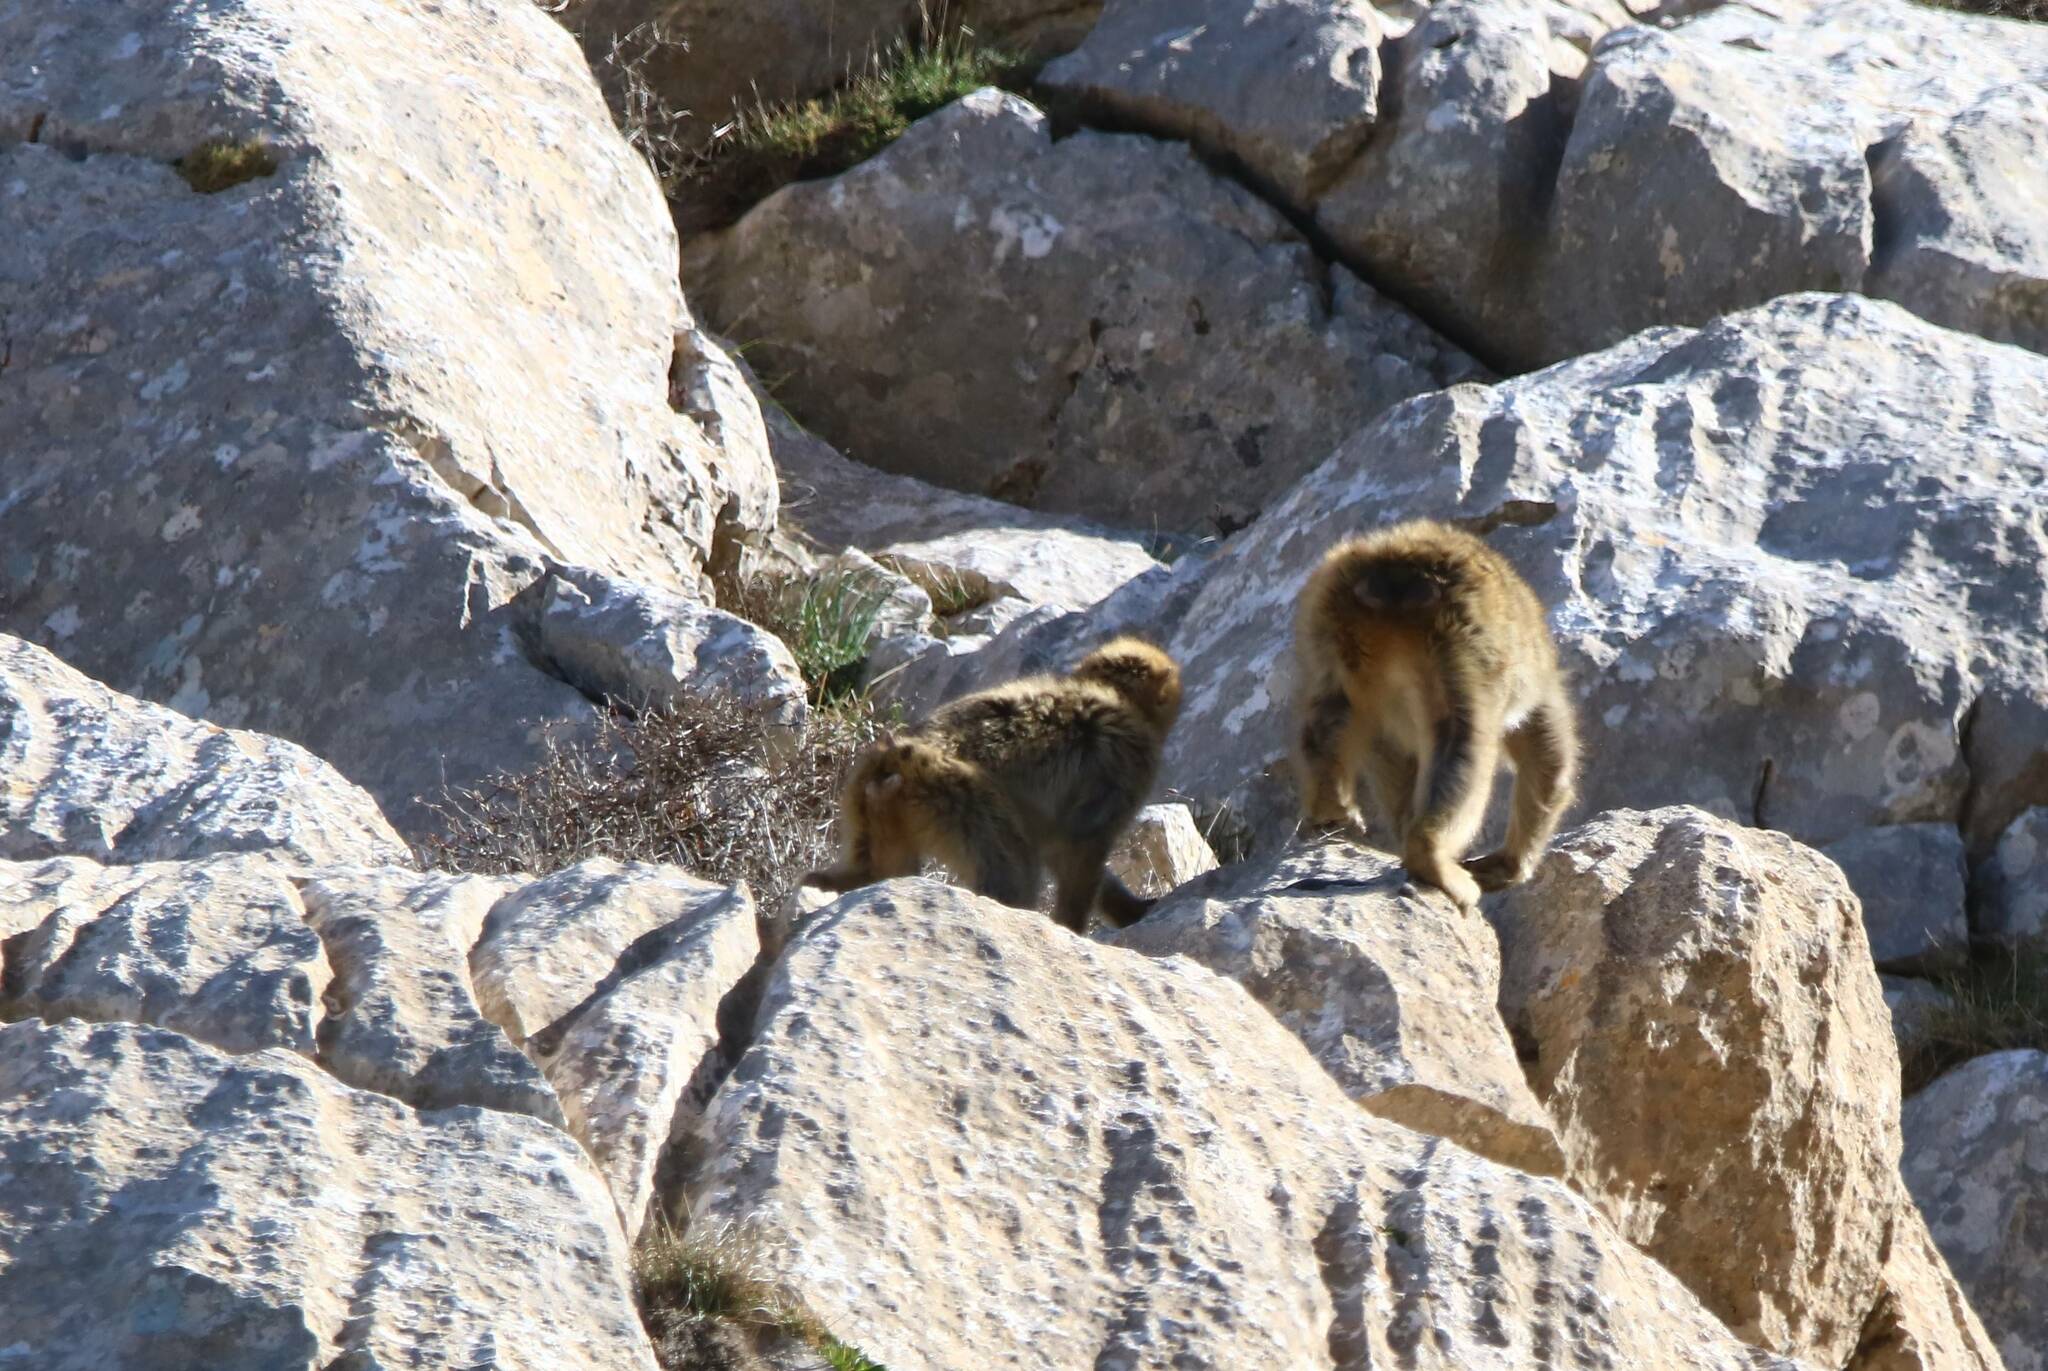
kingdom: Animalia
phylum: Chordata
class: Mammalia
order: Primates
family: Cercopithecidae
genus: Macaca
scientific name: Macaca sylvanus
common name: Barbary macaque
